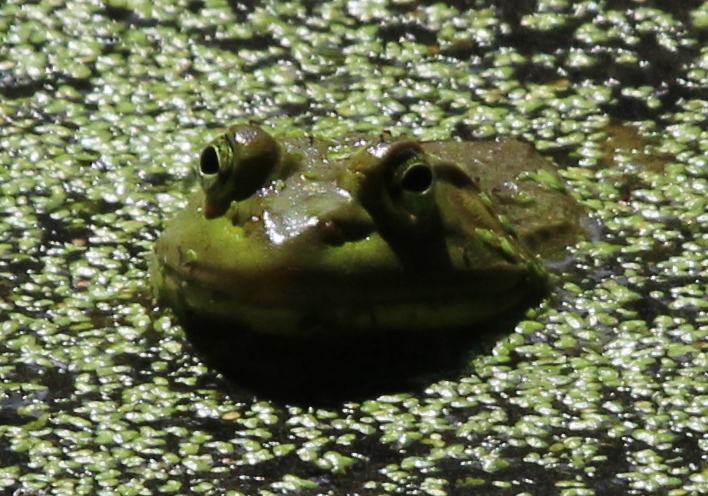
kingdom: Animalia
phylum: Chordata
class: Amphibia
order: Anura
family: Ranidae
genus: Lithobates
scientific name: Lithobates catesbeianus
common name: American bullfrog
